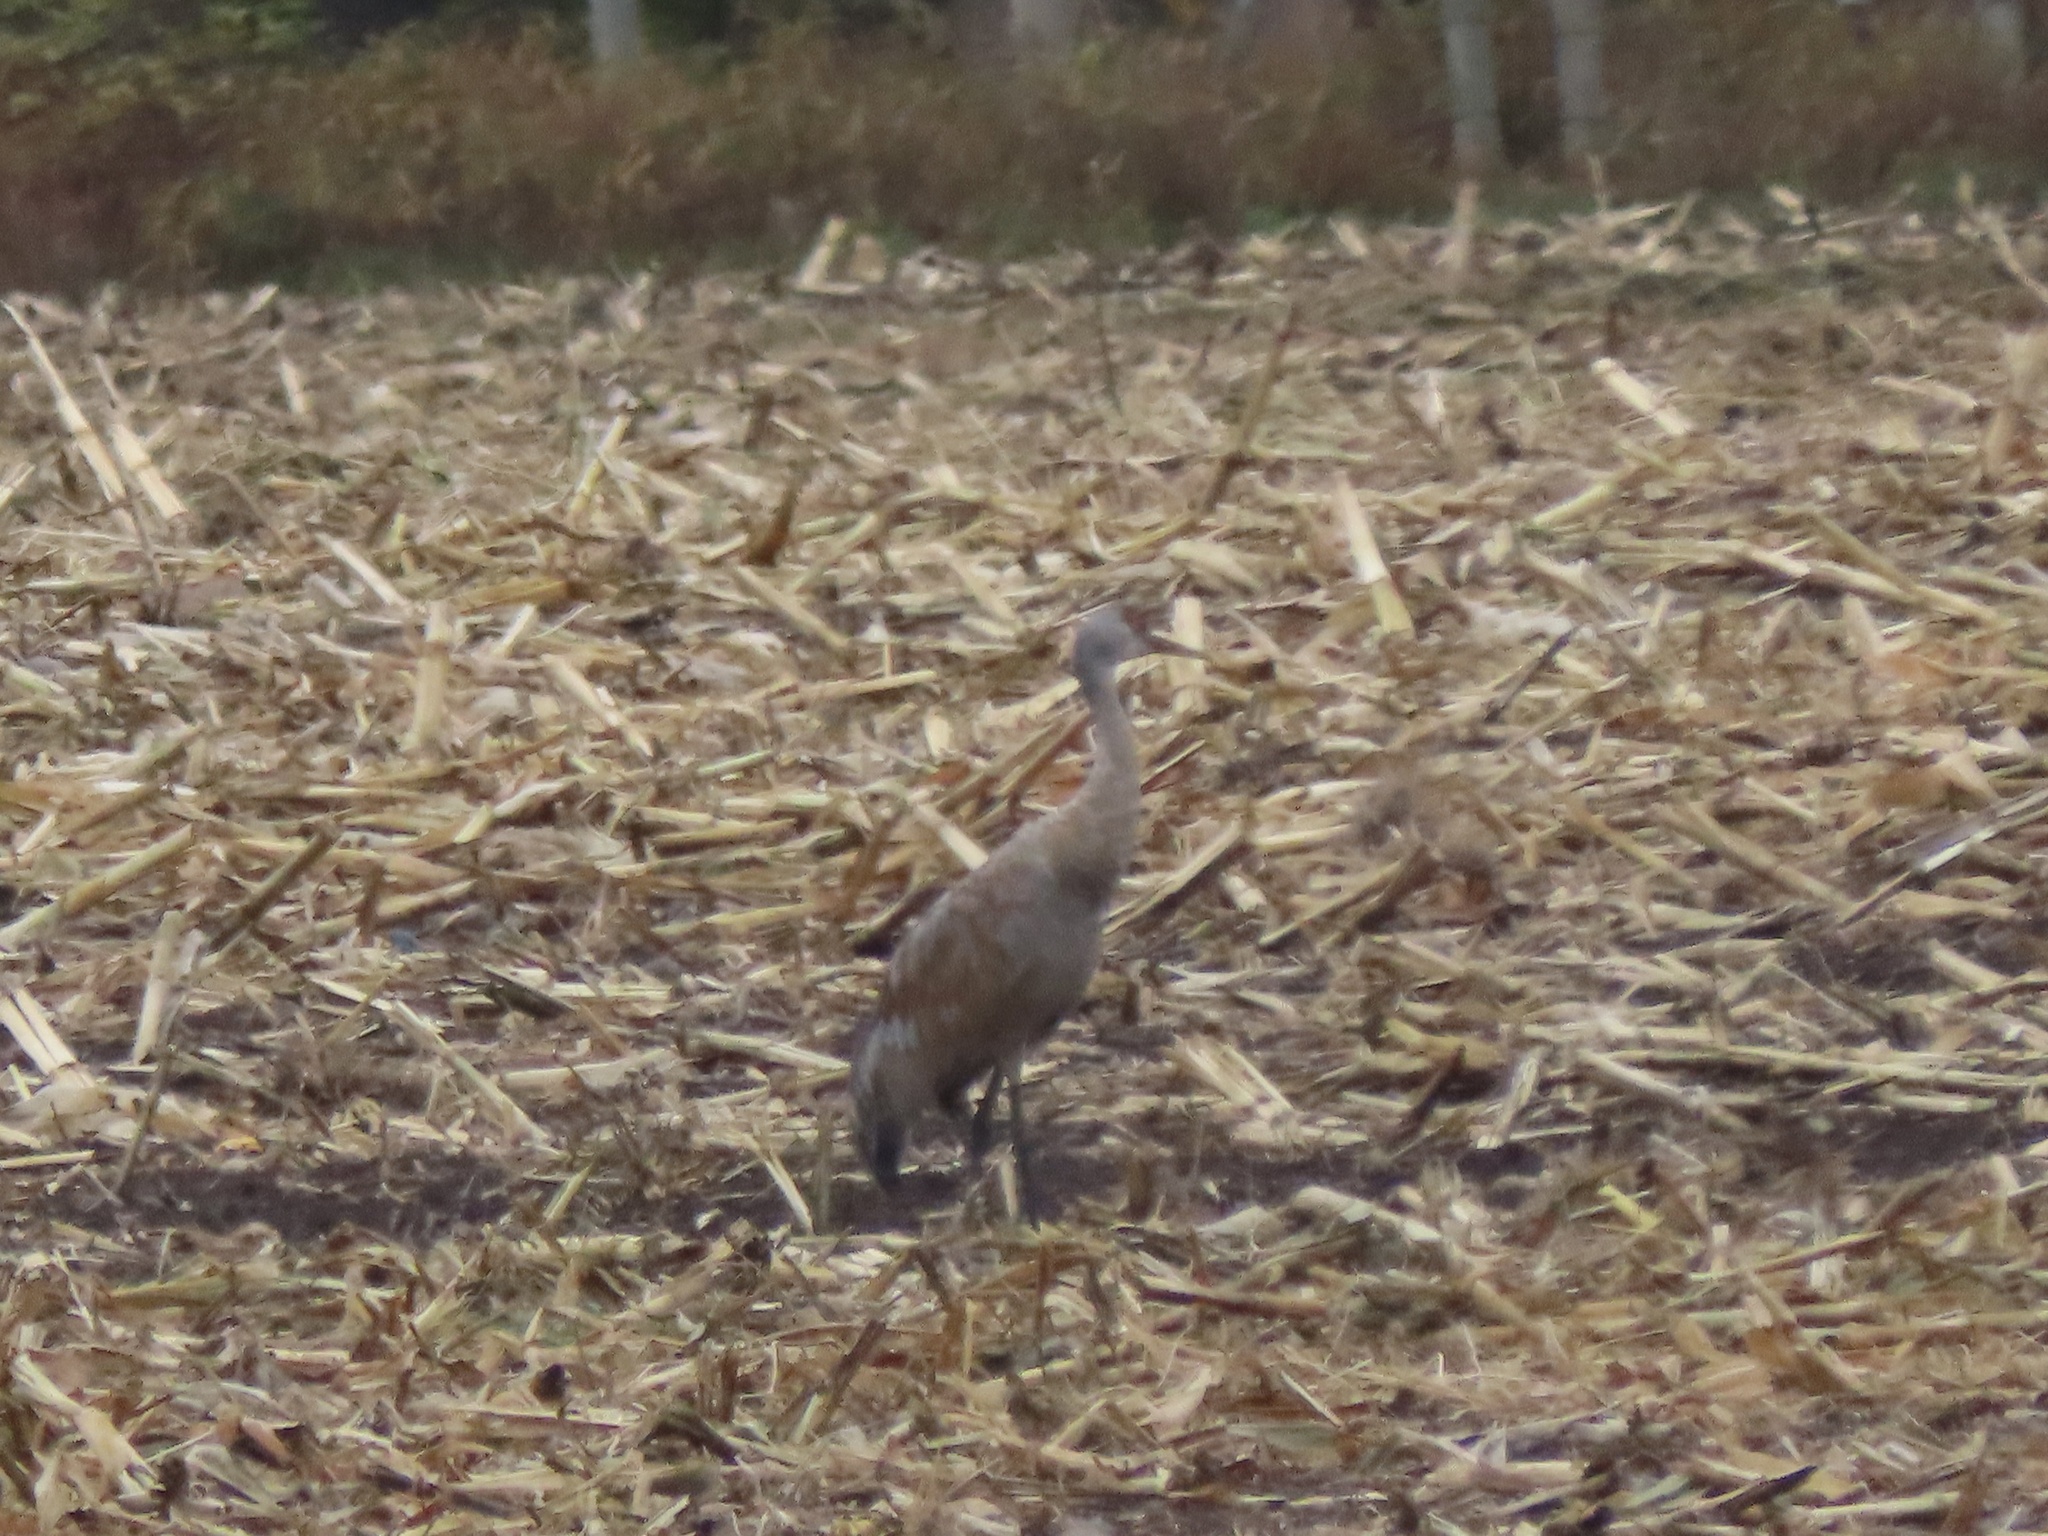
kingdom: Animalia
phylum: Chordata
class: Aves
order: Gruiformes
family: Gruidae
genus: Grus
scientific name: Grus canadensis
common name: Sandhill crane
